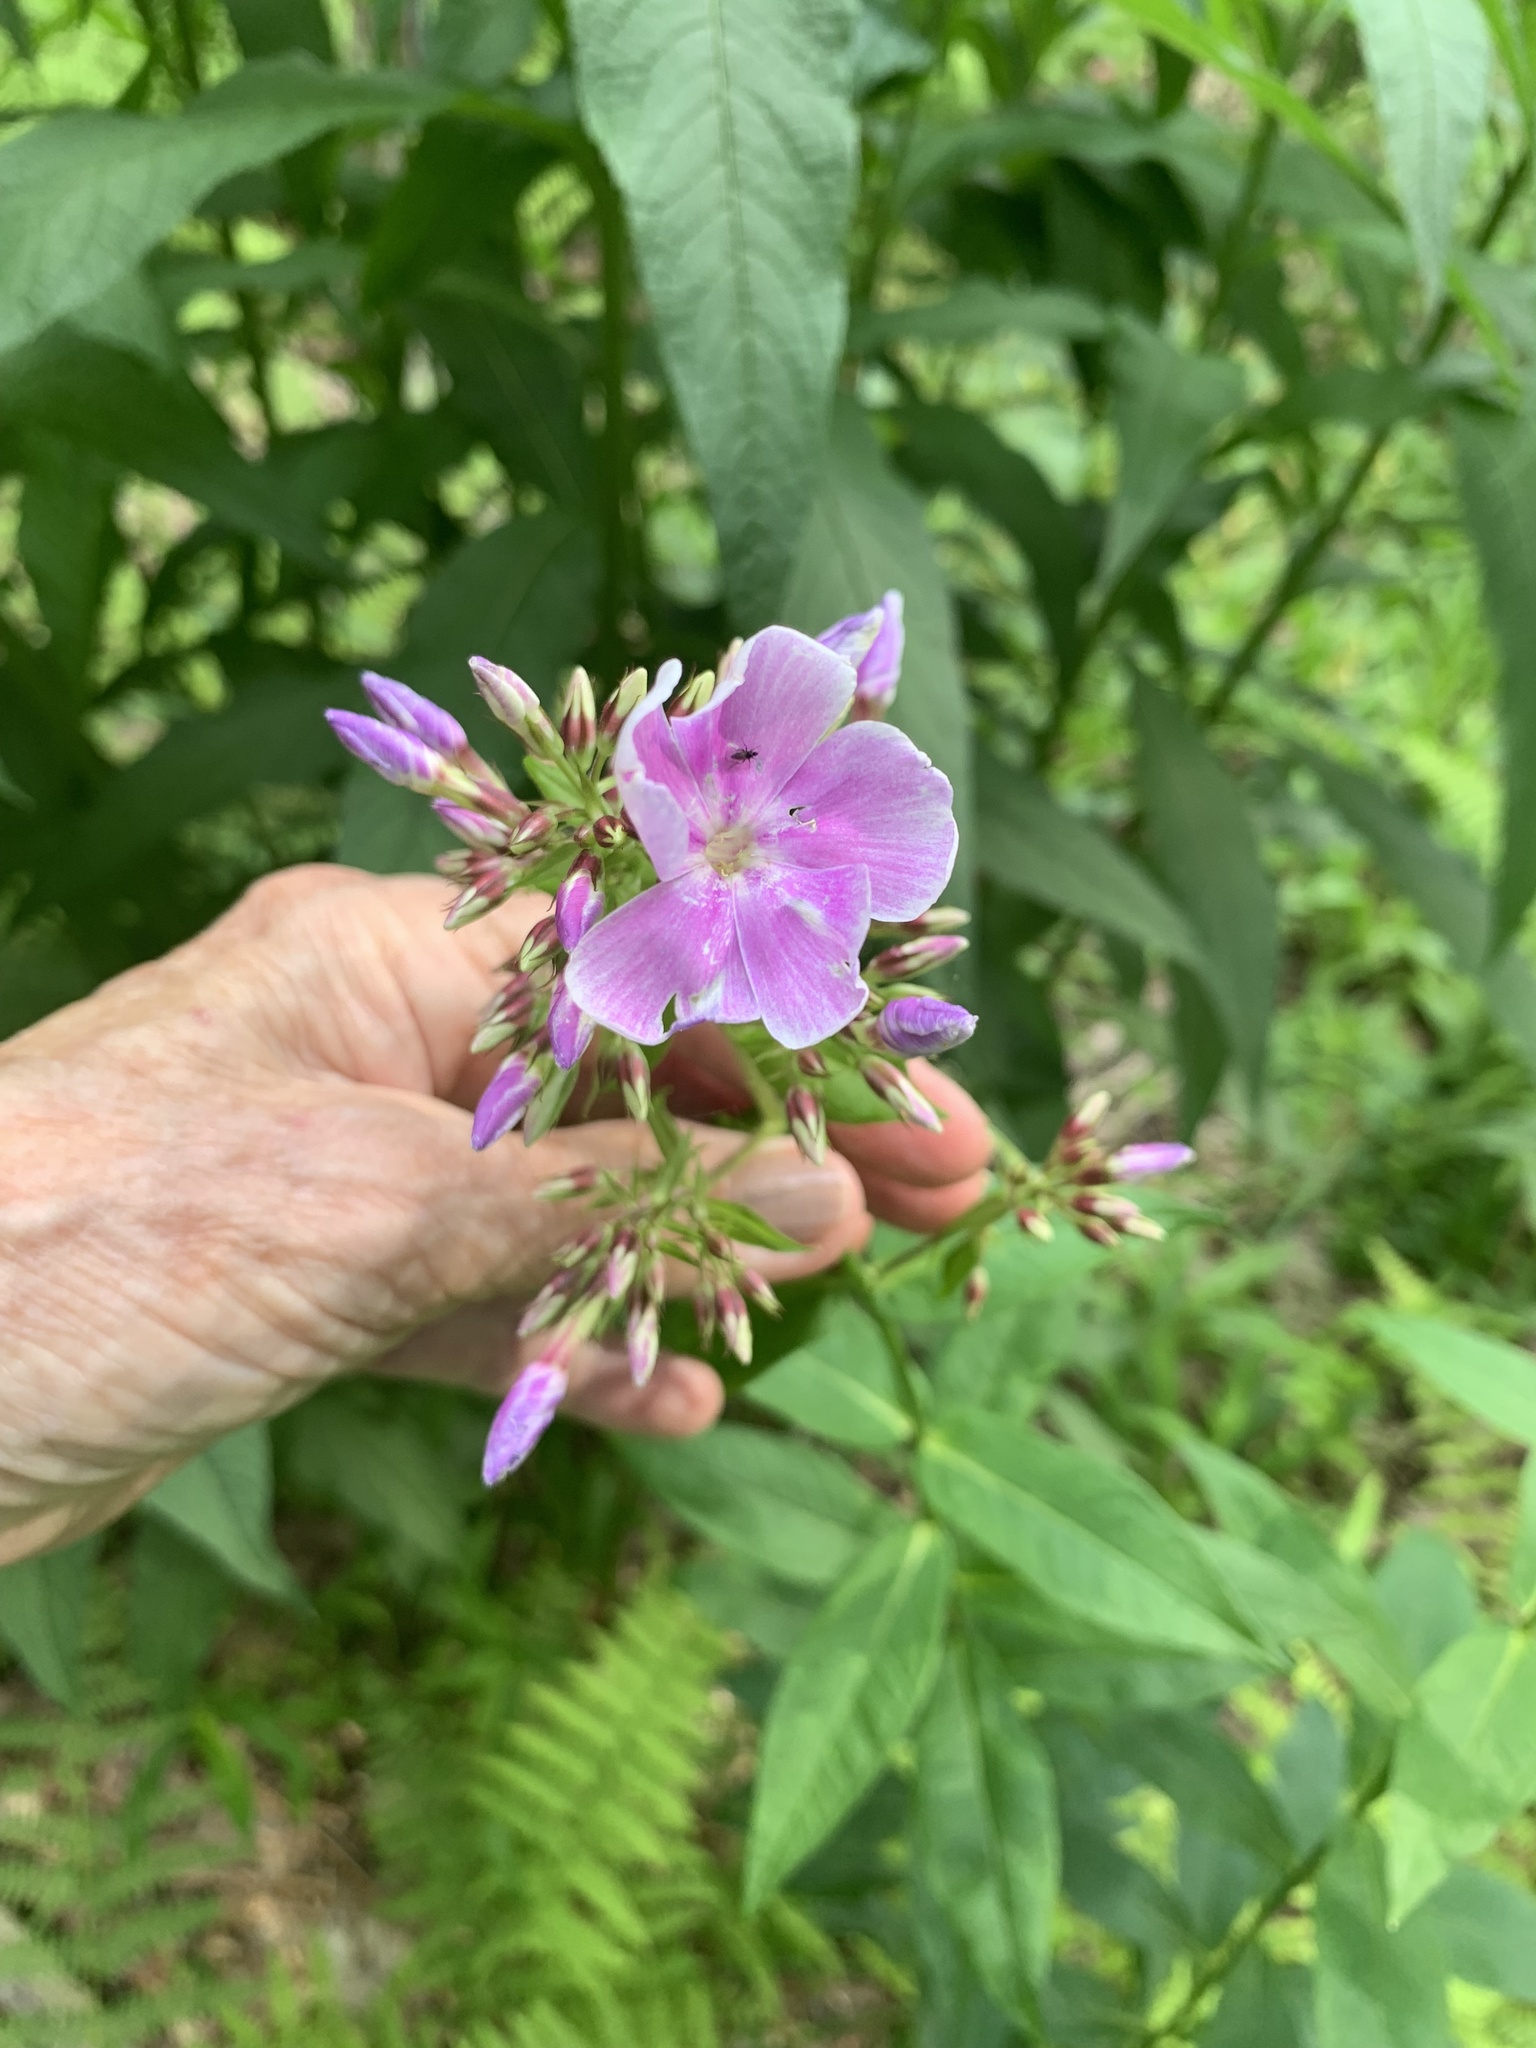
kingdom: Plantae
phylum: Tracheophyta
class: Magnoliopsida
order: Ericales
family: Polemoniaceae
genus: Phlox
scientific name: Phlox paniculata
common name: Fall phlox
